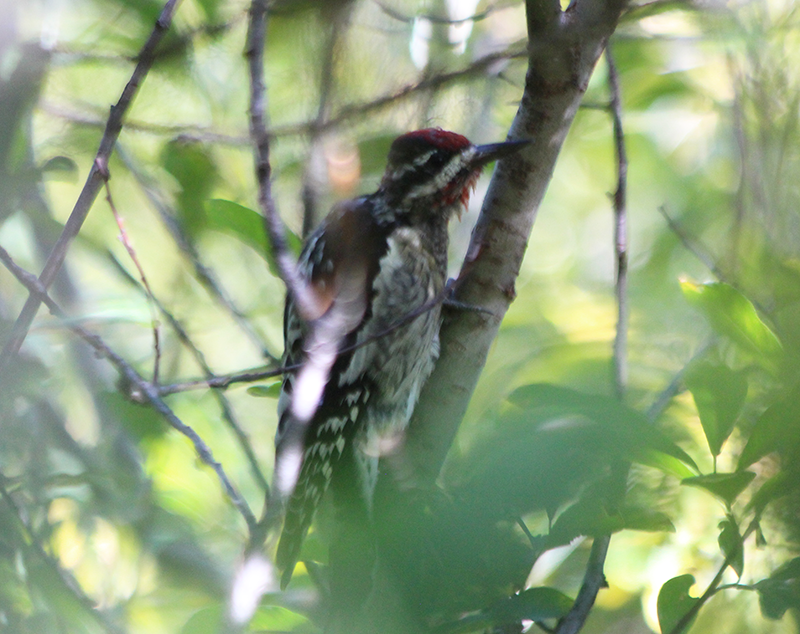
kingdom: Animalia
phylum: Chordata
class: Aves
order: Piciformes
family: Picidae
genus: Sphyrapicus
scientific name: Sphyrapicus nuchalis
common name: Red-naped sapsucker
